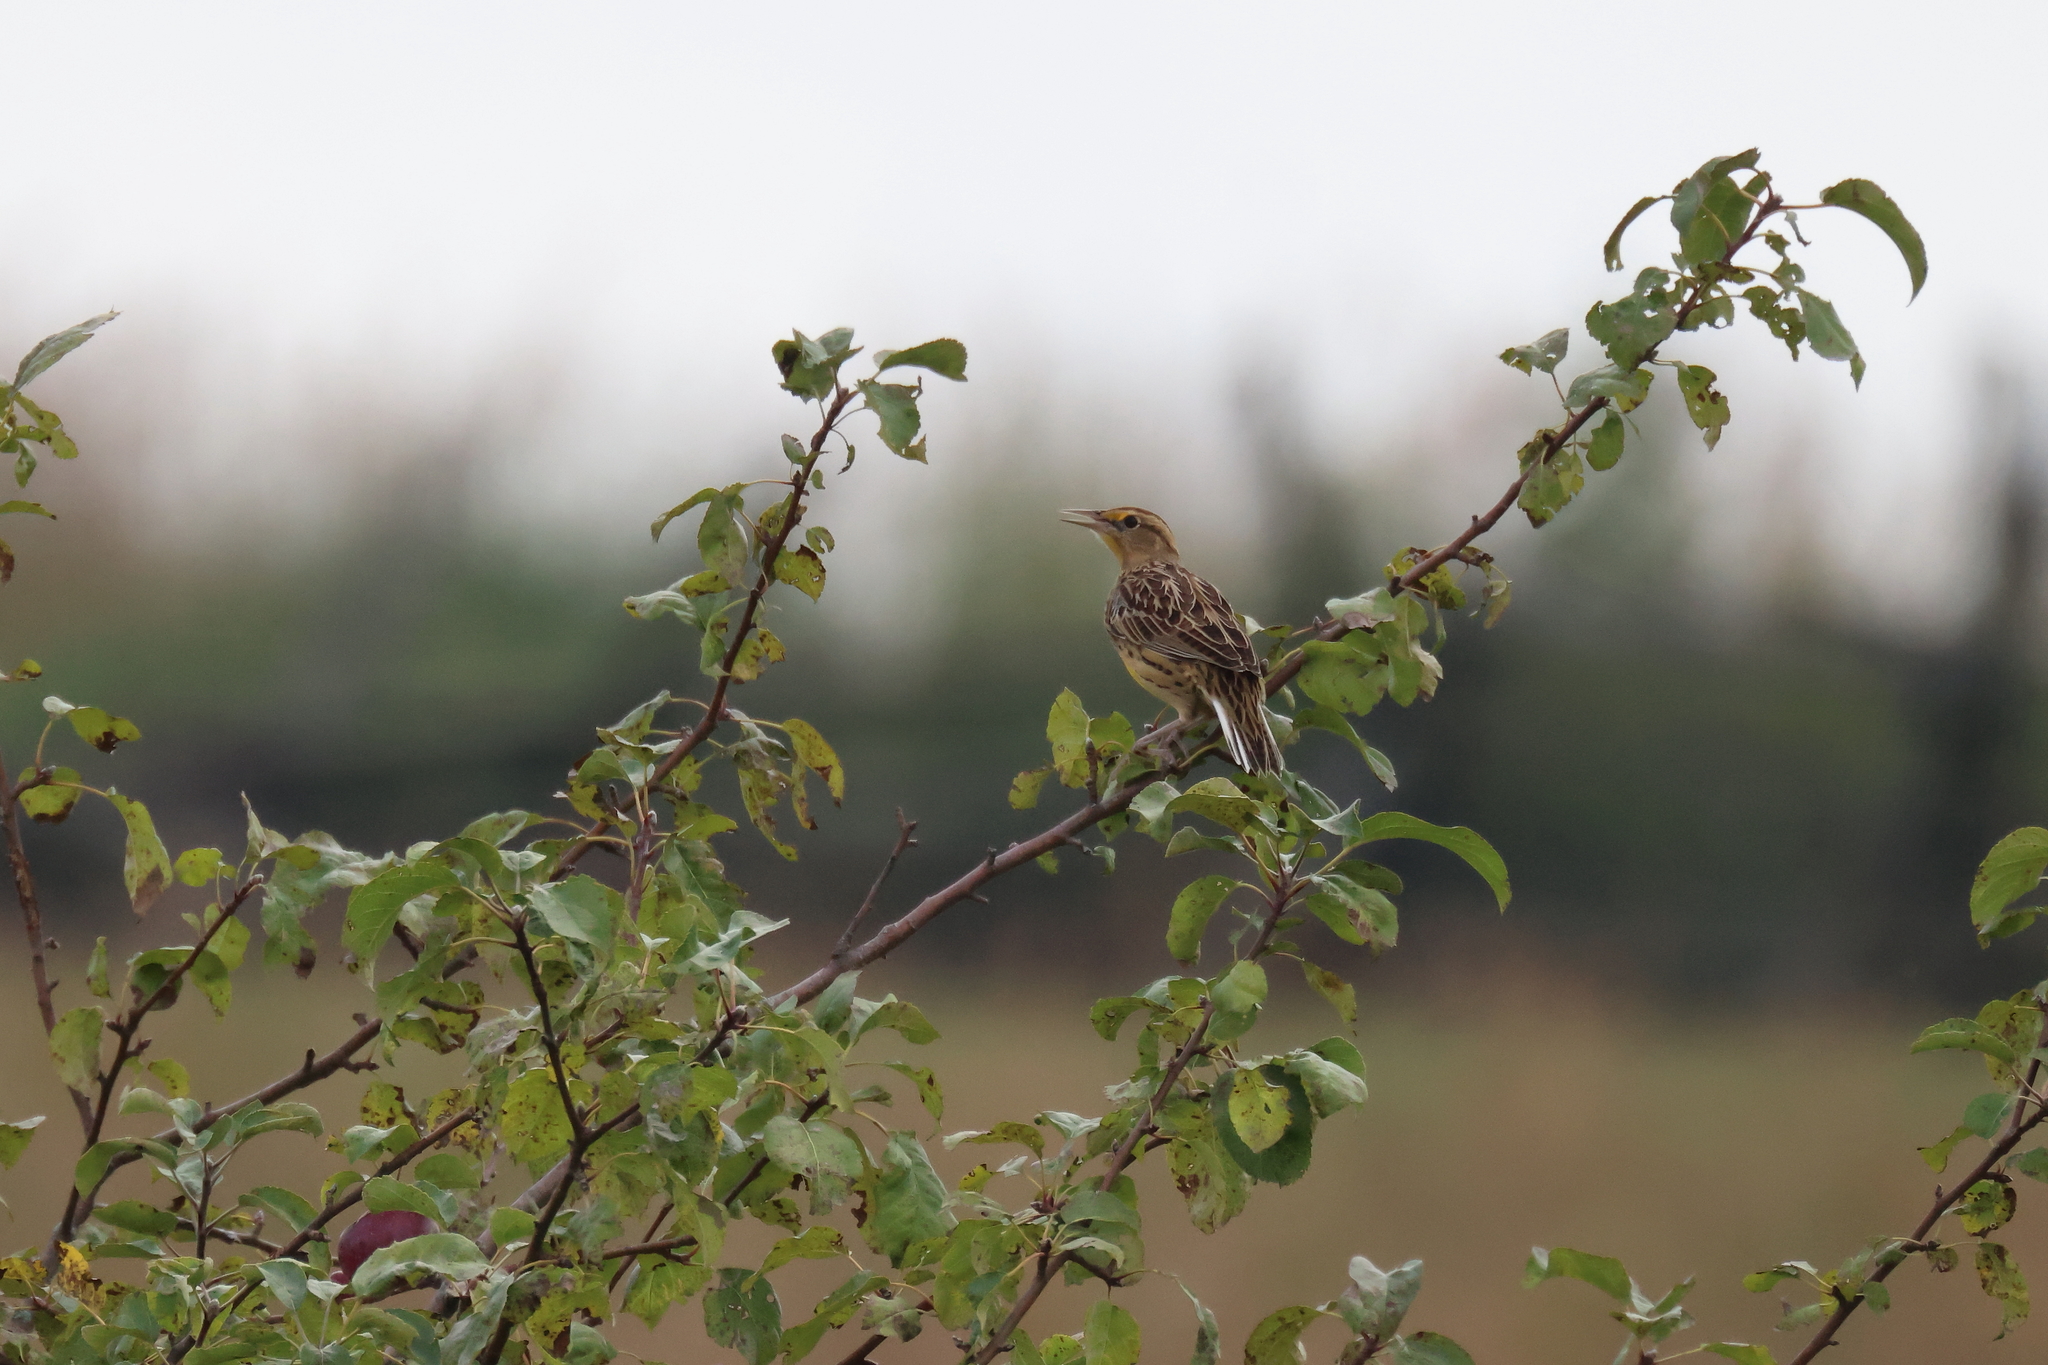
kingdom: Animalia
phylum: Chordata
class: Aves
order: Passeriformes
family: Icteridae
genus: Sturnella
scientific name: Sturnella magna
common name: Eastern meadowlark
